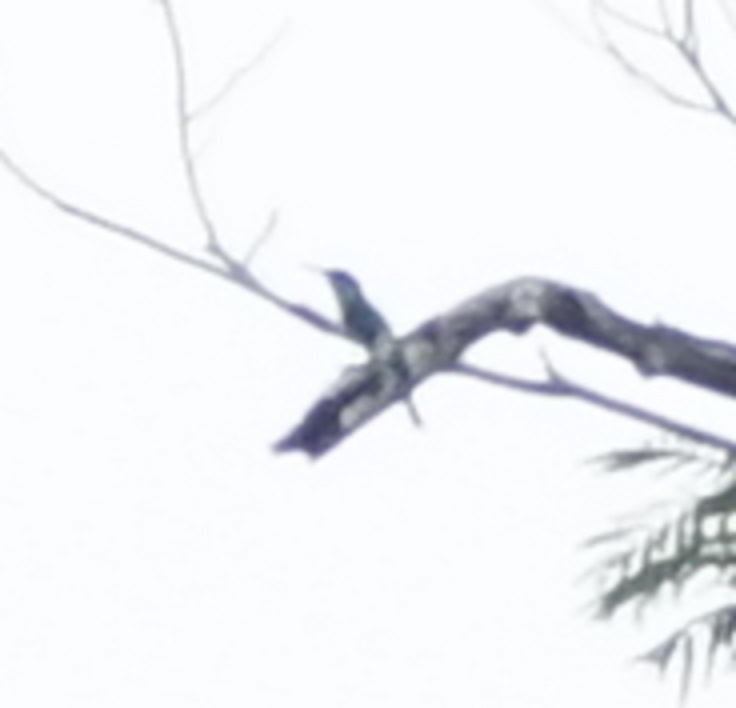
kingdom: Animalia
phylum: Chordata
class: Aves
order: Coraciiformes
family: Meropidae
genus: Merops
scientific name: Merops viridis
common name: Blue-throated bee-eater
